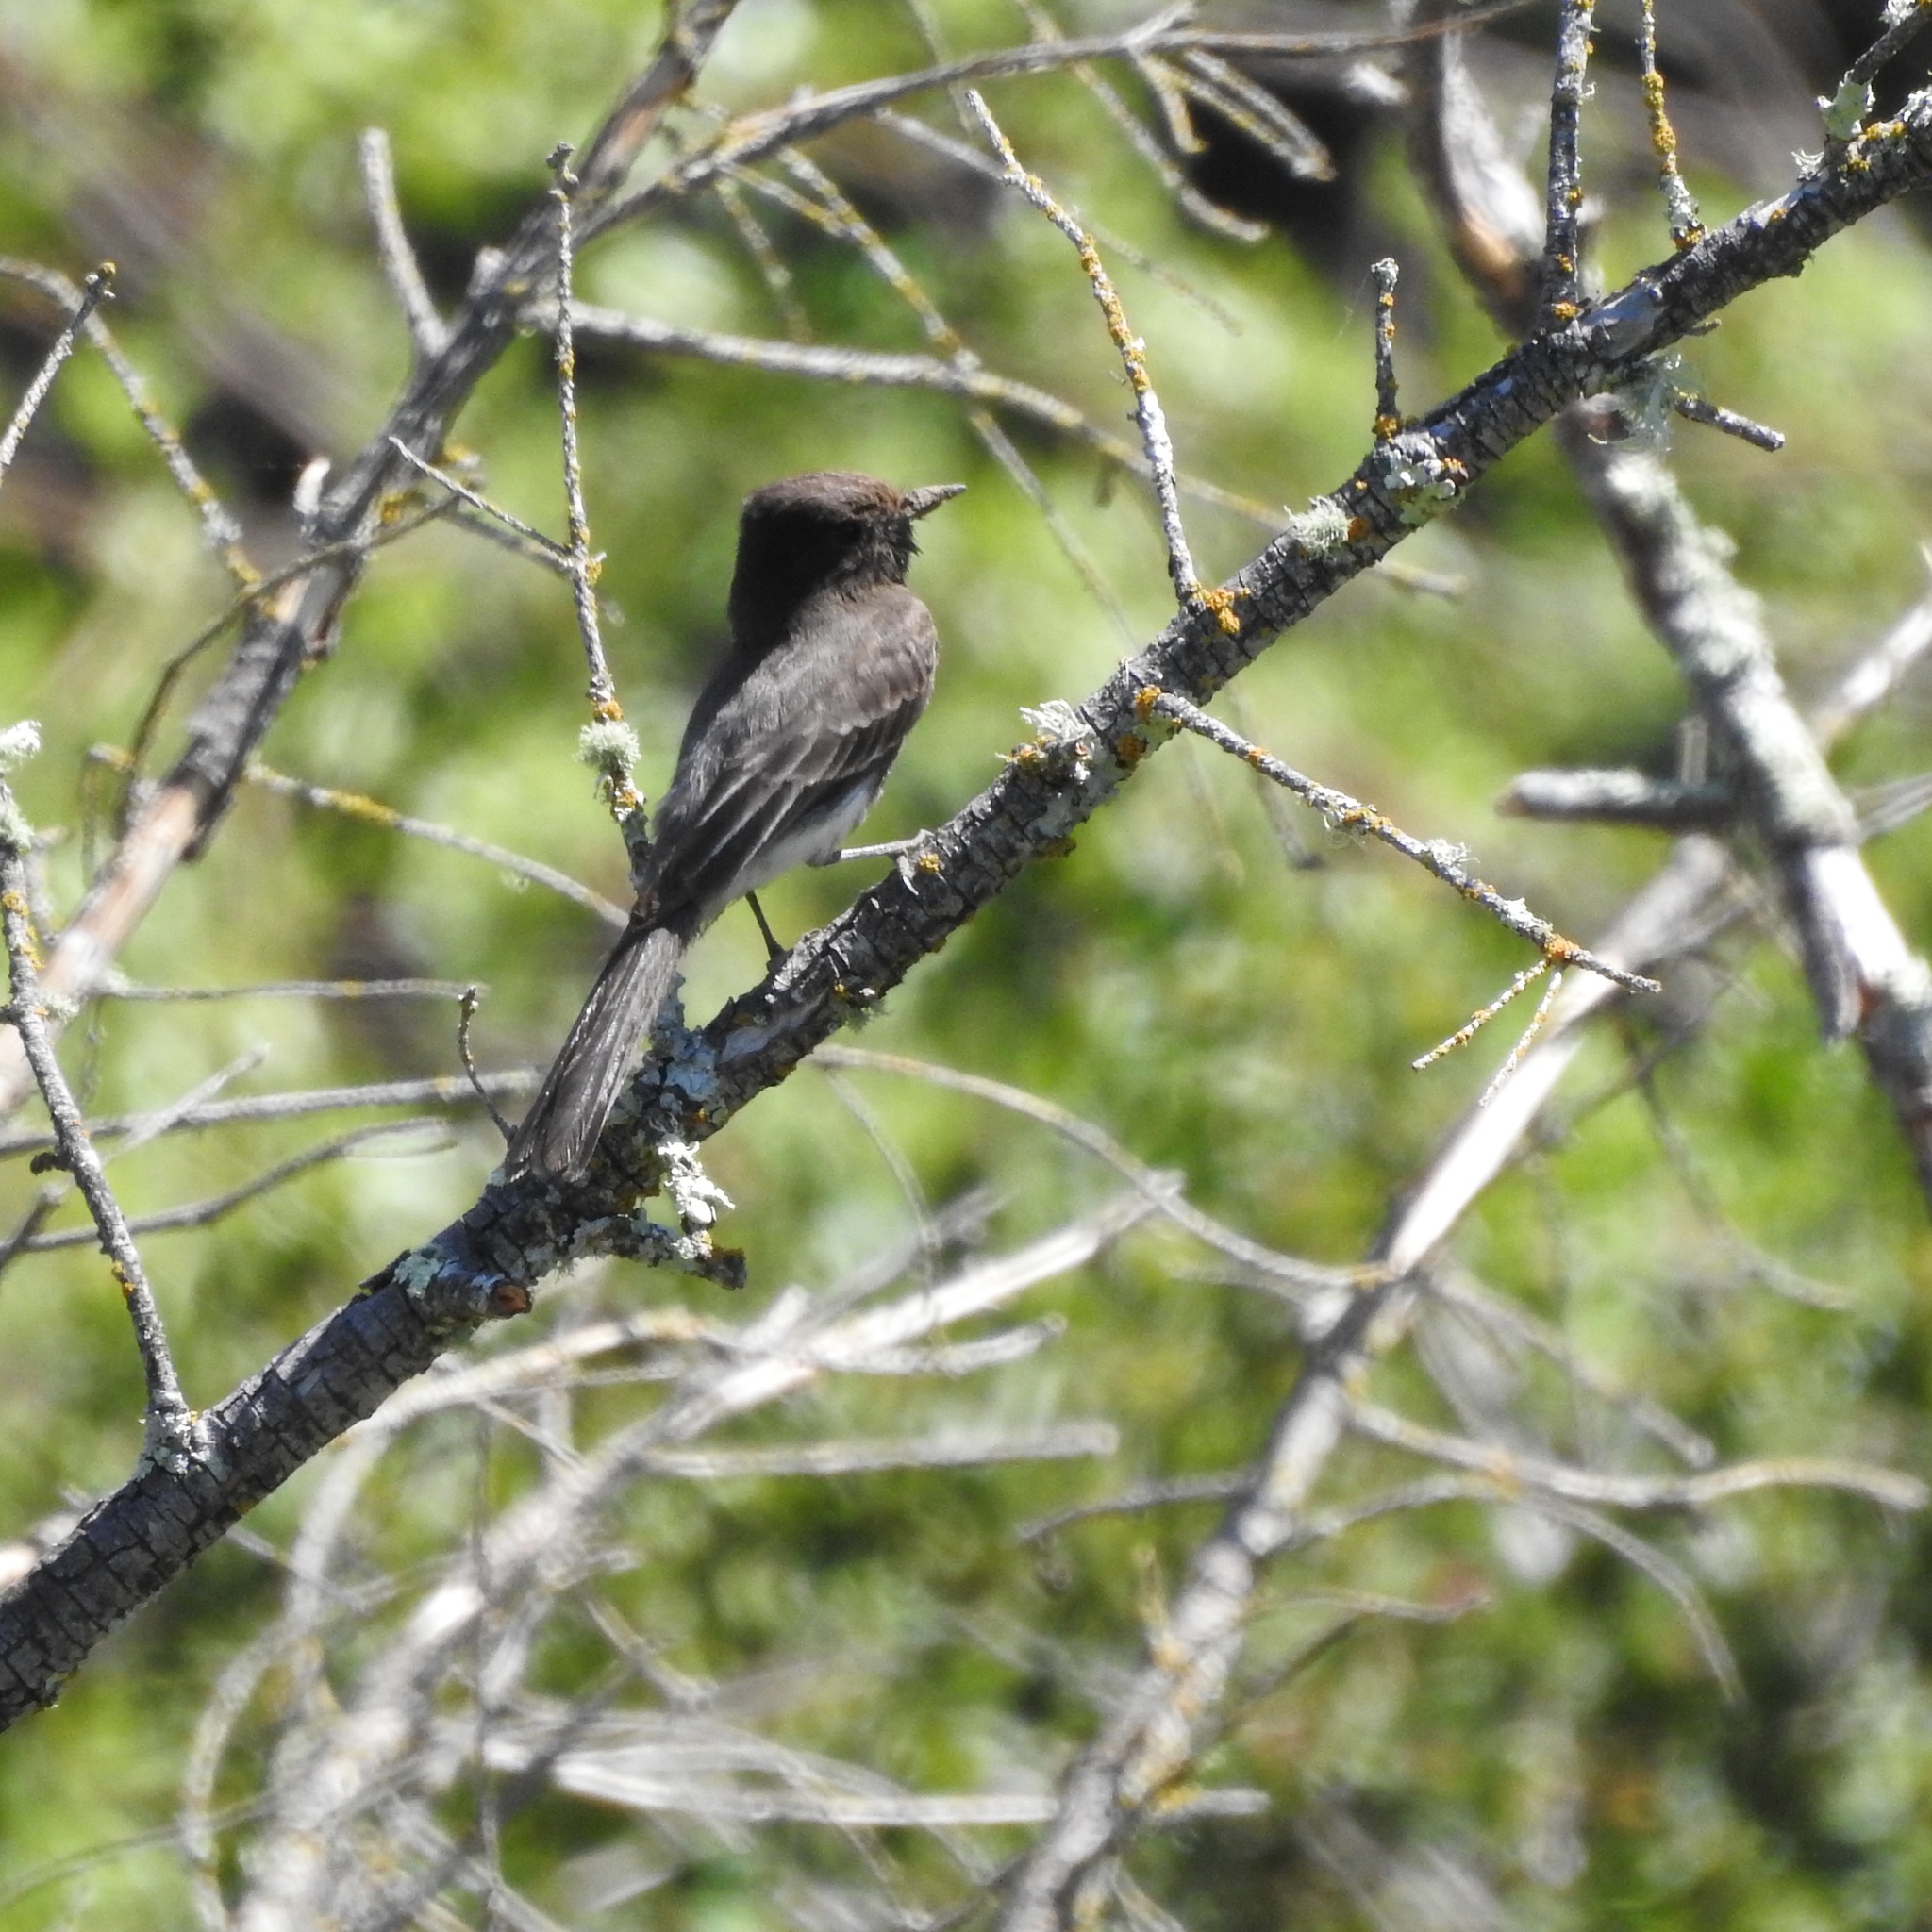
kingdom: Animalia
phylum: Chordata
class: Aves
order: Passeriformes
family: Tyrannidae
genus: Sayornis
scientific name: Sayornis nigricans
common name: Black phoebe
